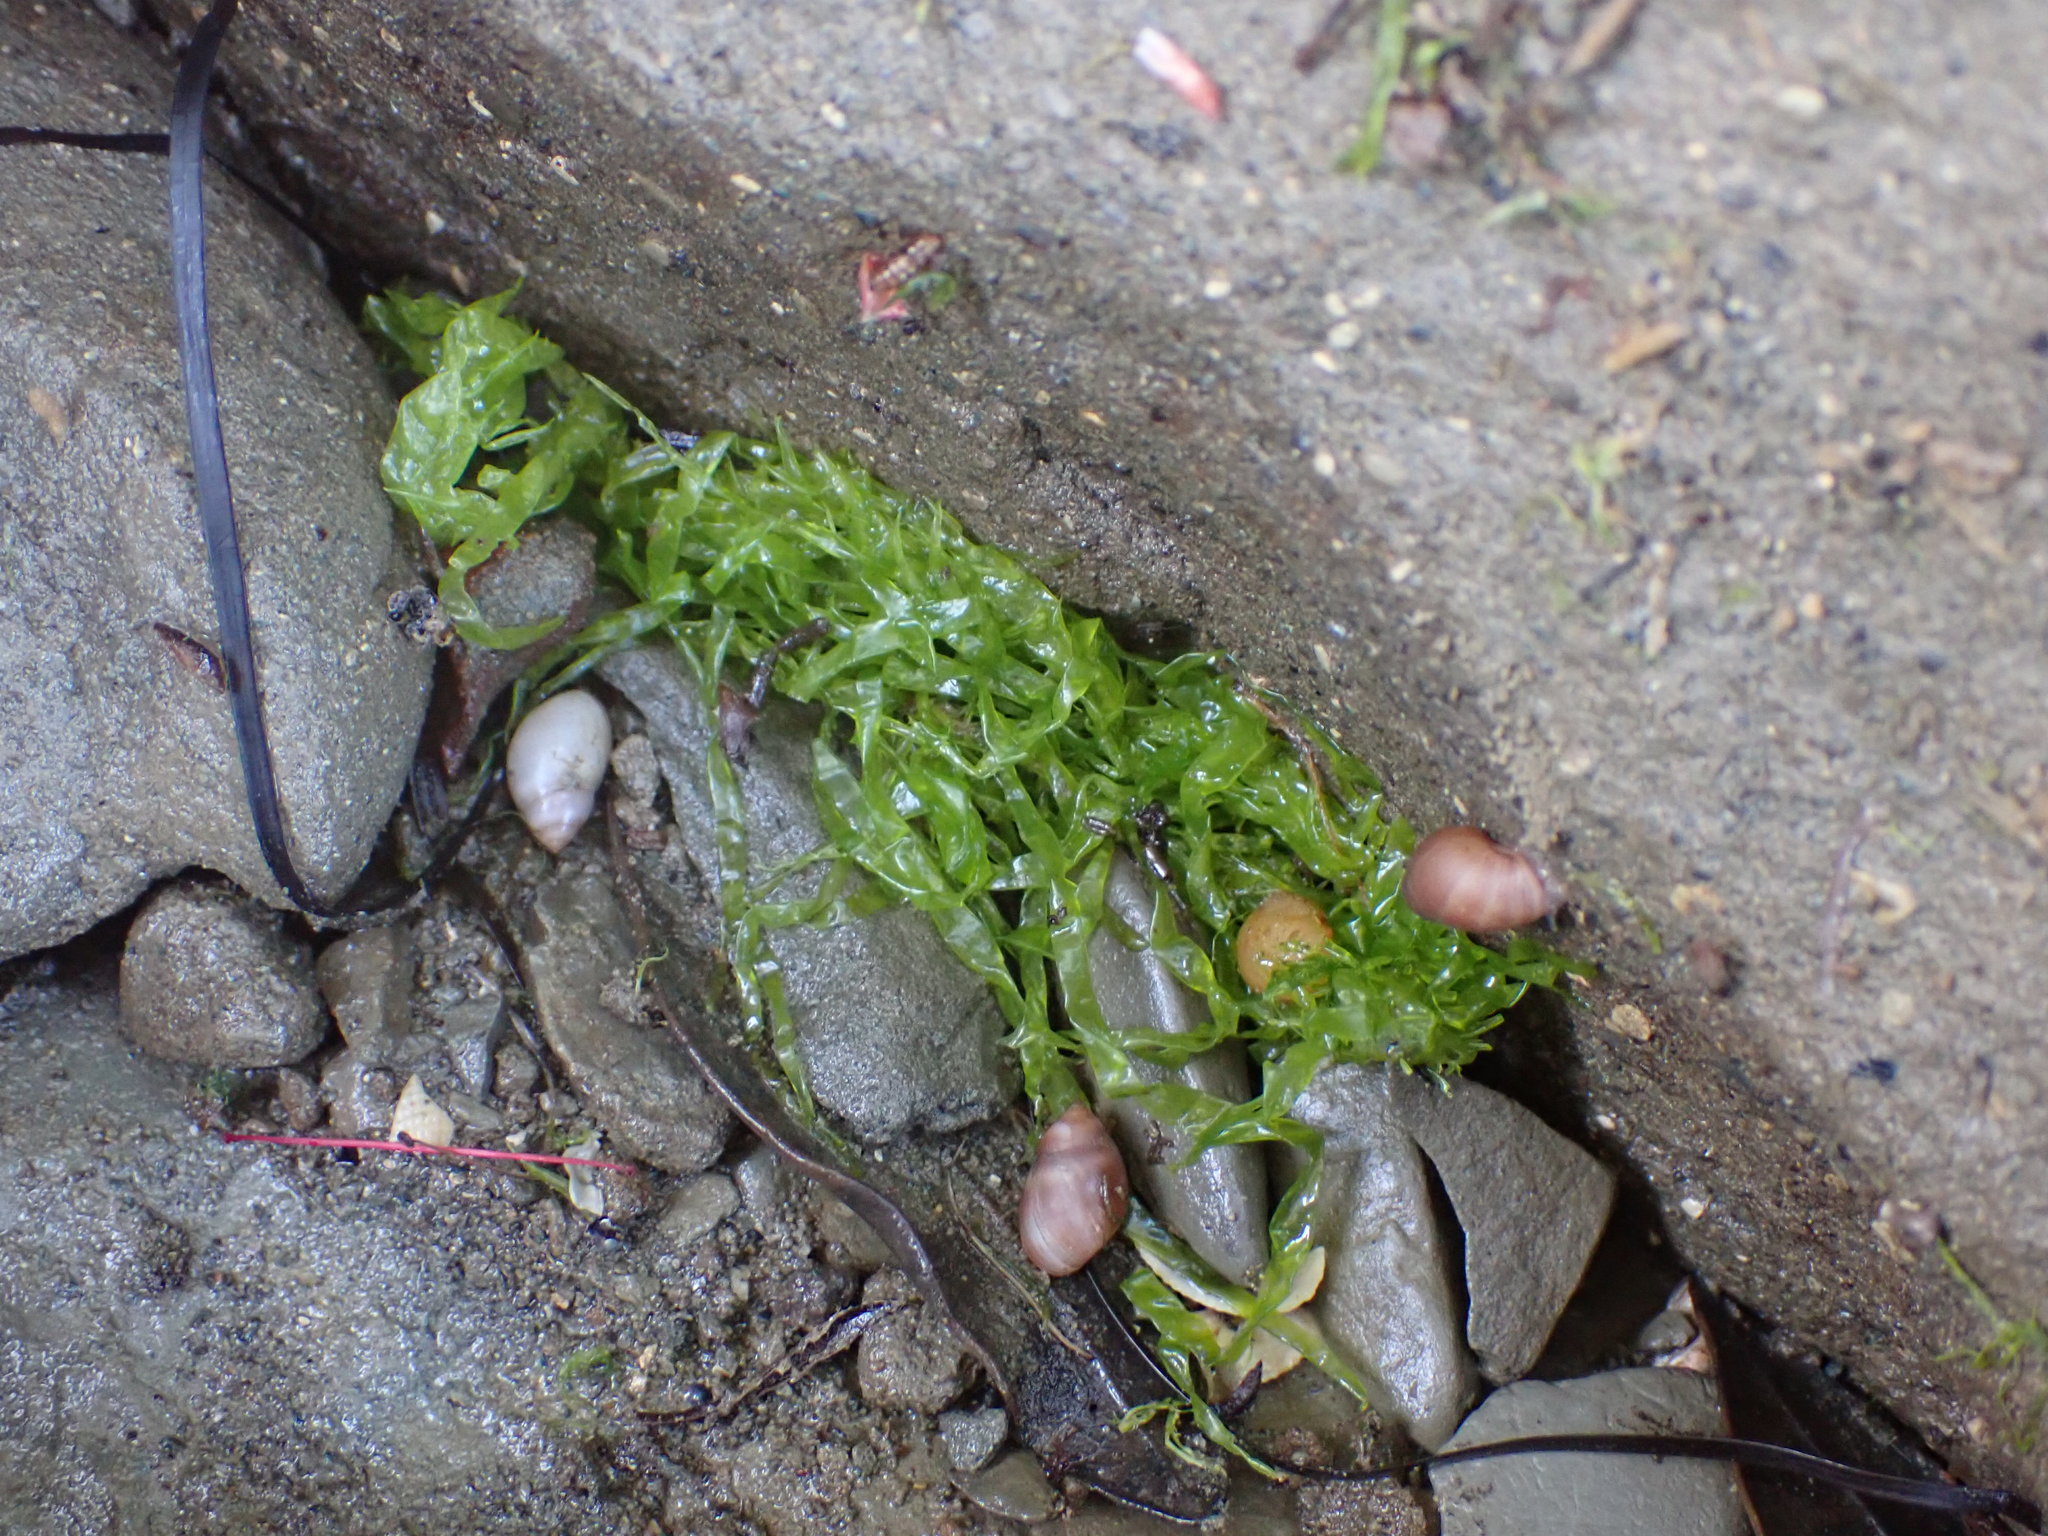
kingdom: Animalia
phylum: Mollusca
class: Gastropoda
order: Ellobiida
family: Ellobiidae
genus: Marinula
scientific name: Marinula filholi
